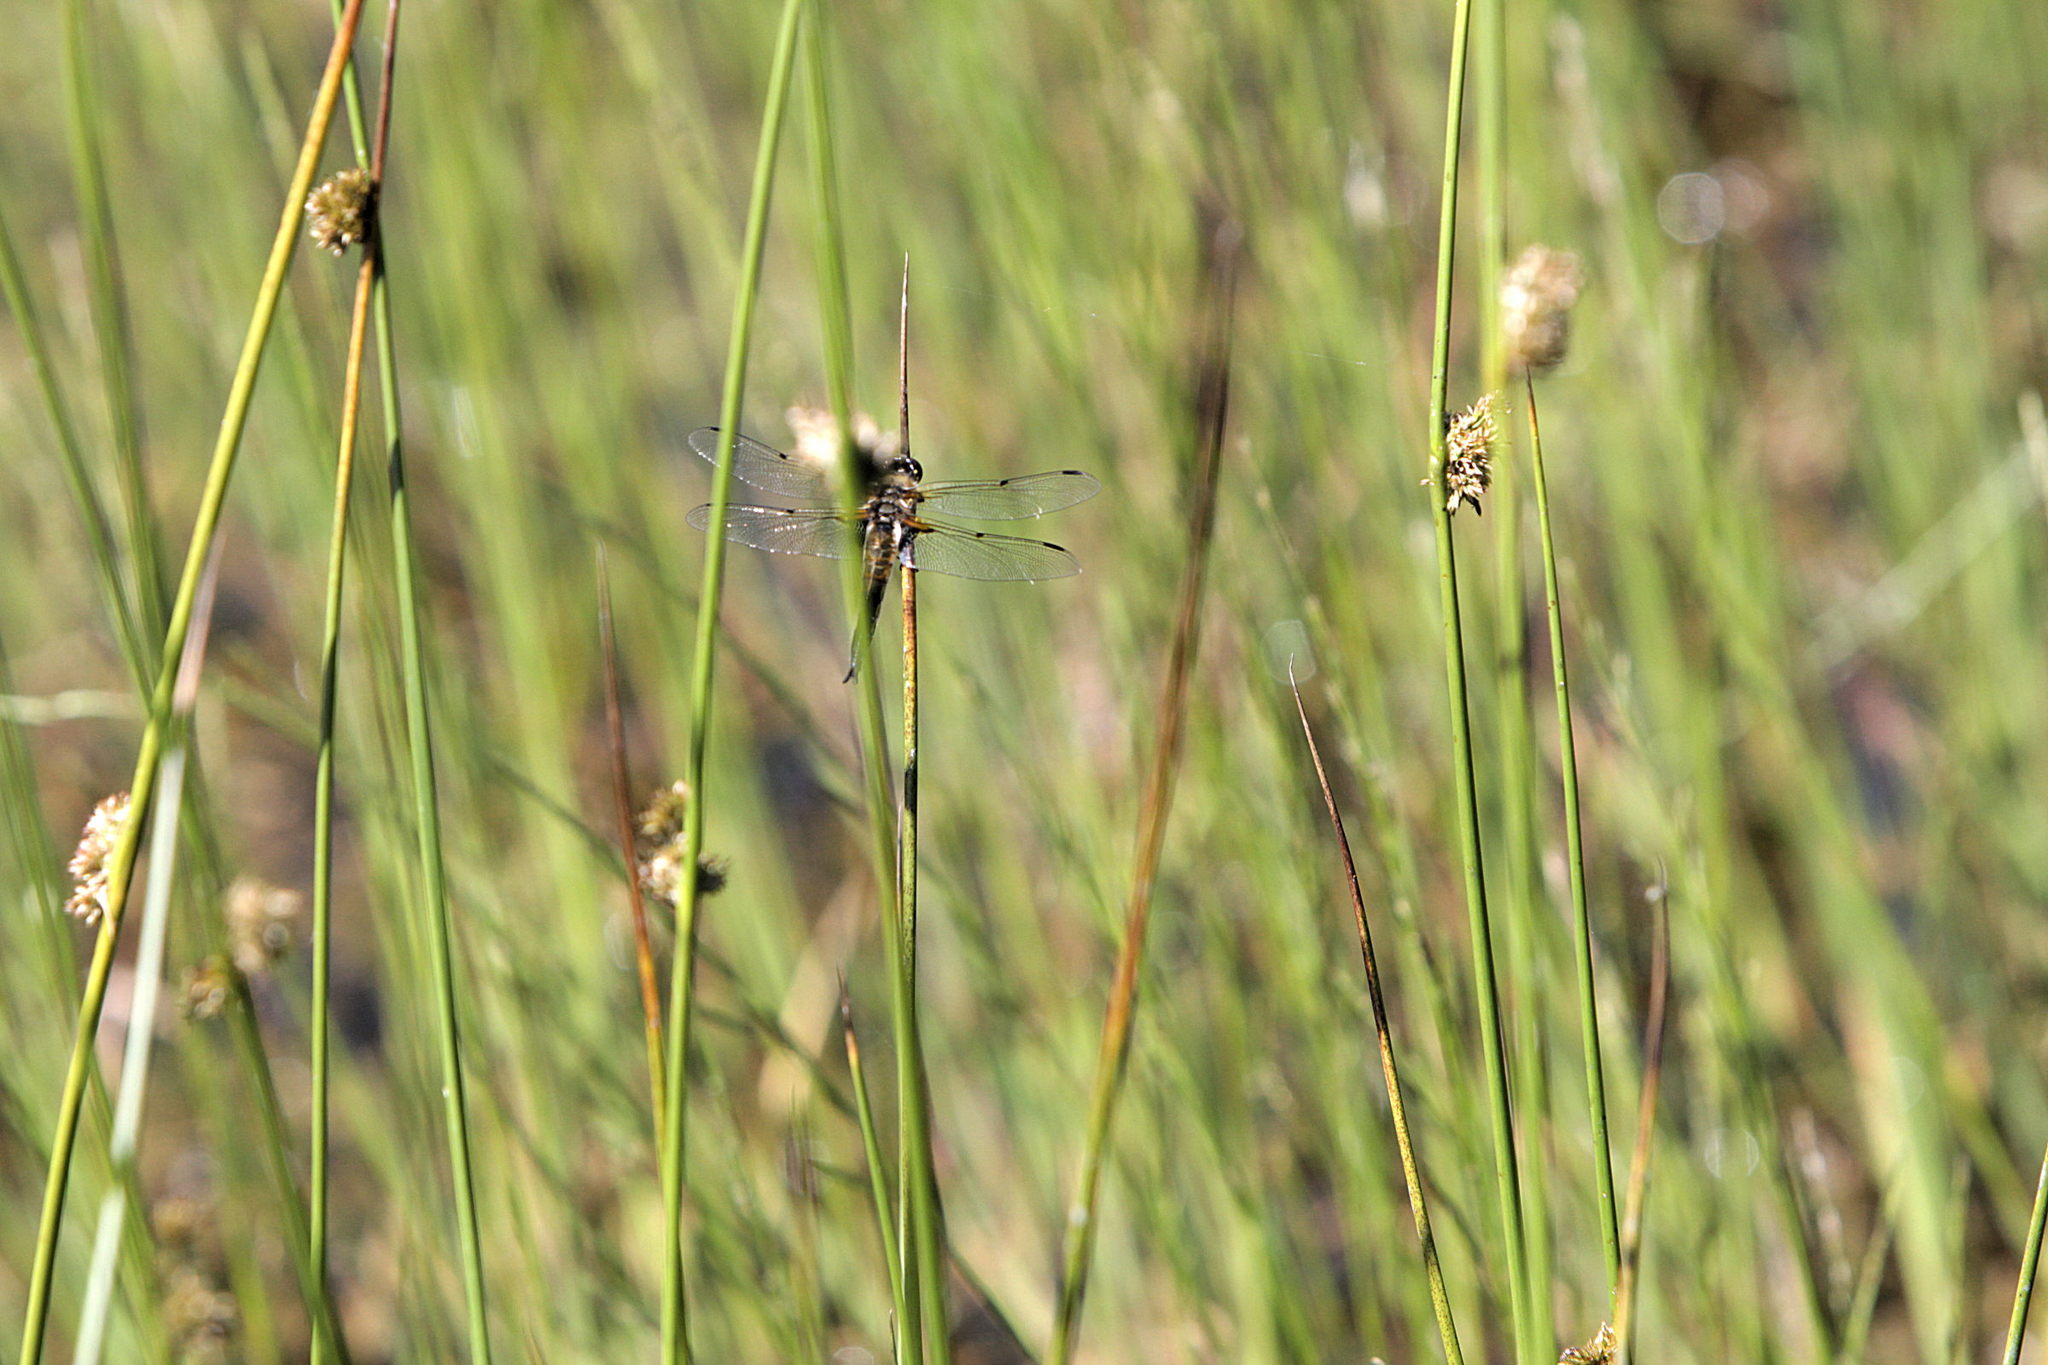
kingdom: Animalia
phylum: Arthropoda
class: Insecta
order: Odonata
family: Libellulidae
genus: Libellula
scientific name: Libellula quadrimaculata
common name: Four-spotted chaser
